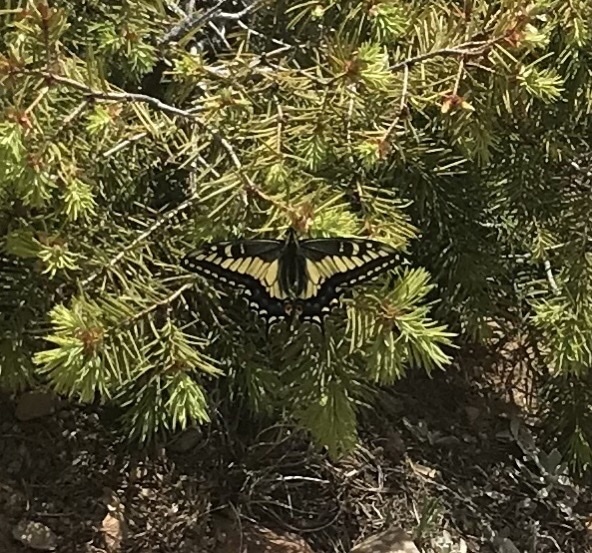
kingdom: Animalia
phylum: Arthropoda
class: Insecta
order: Lepidoptera
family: Papilionidae
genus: Papilio
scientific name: Papilio zelicaon
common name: Anise swallowtail
